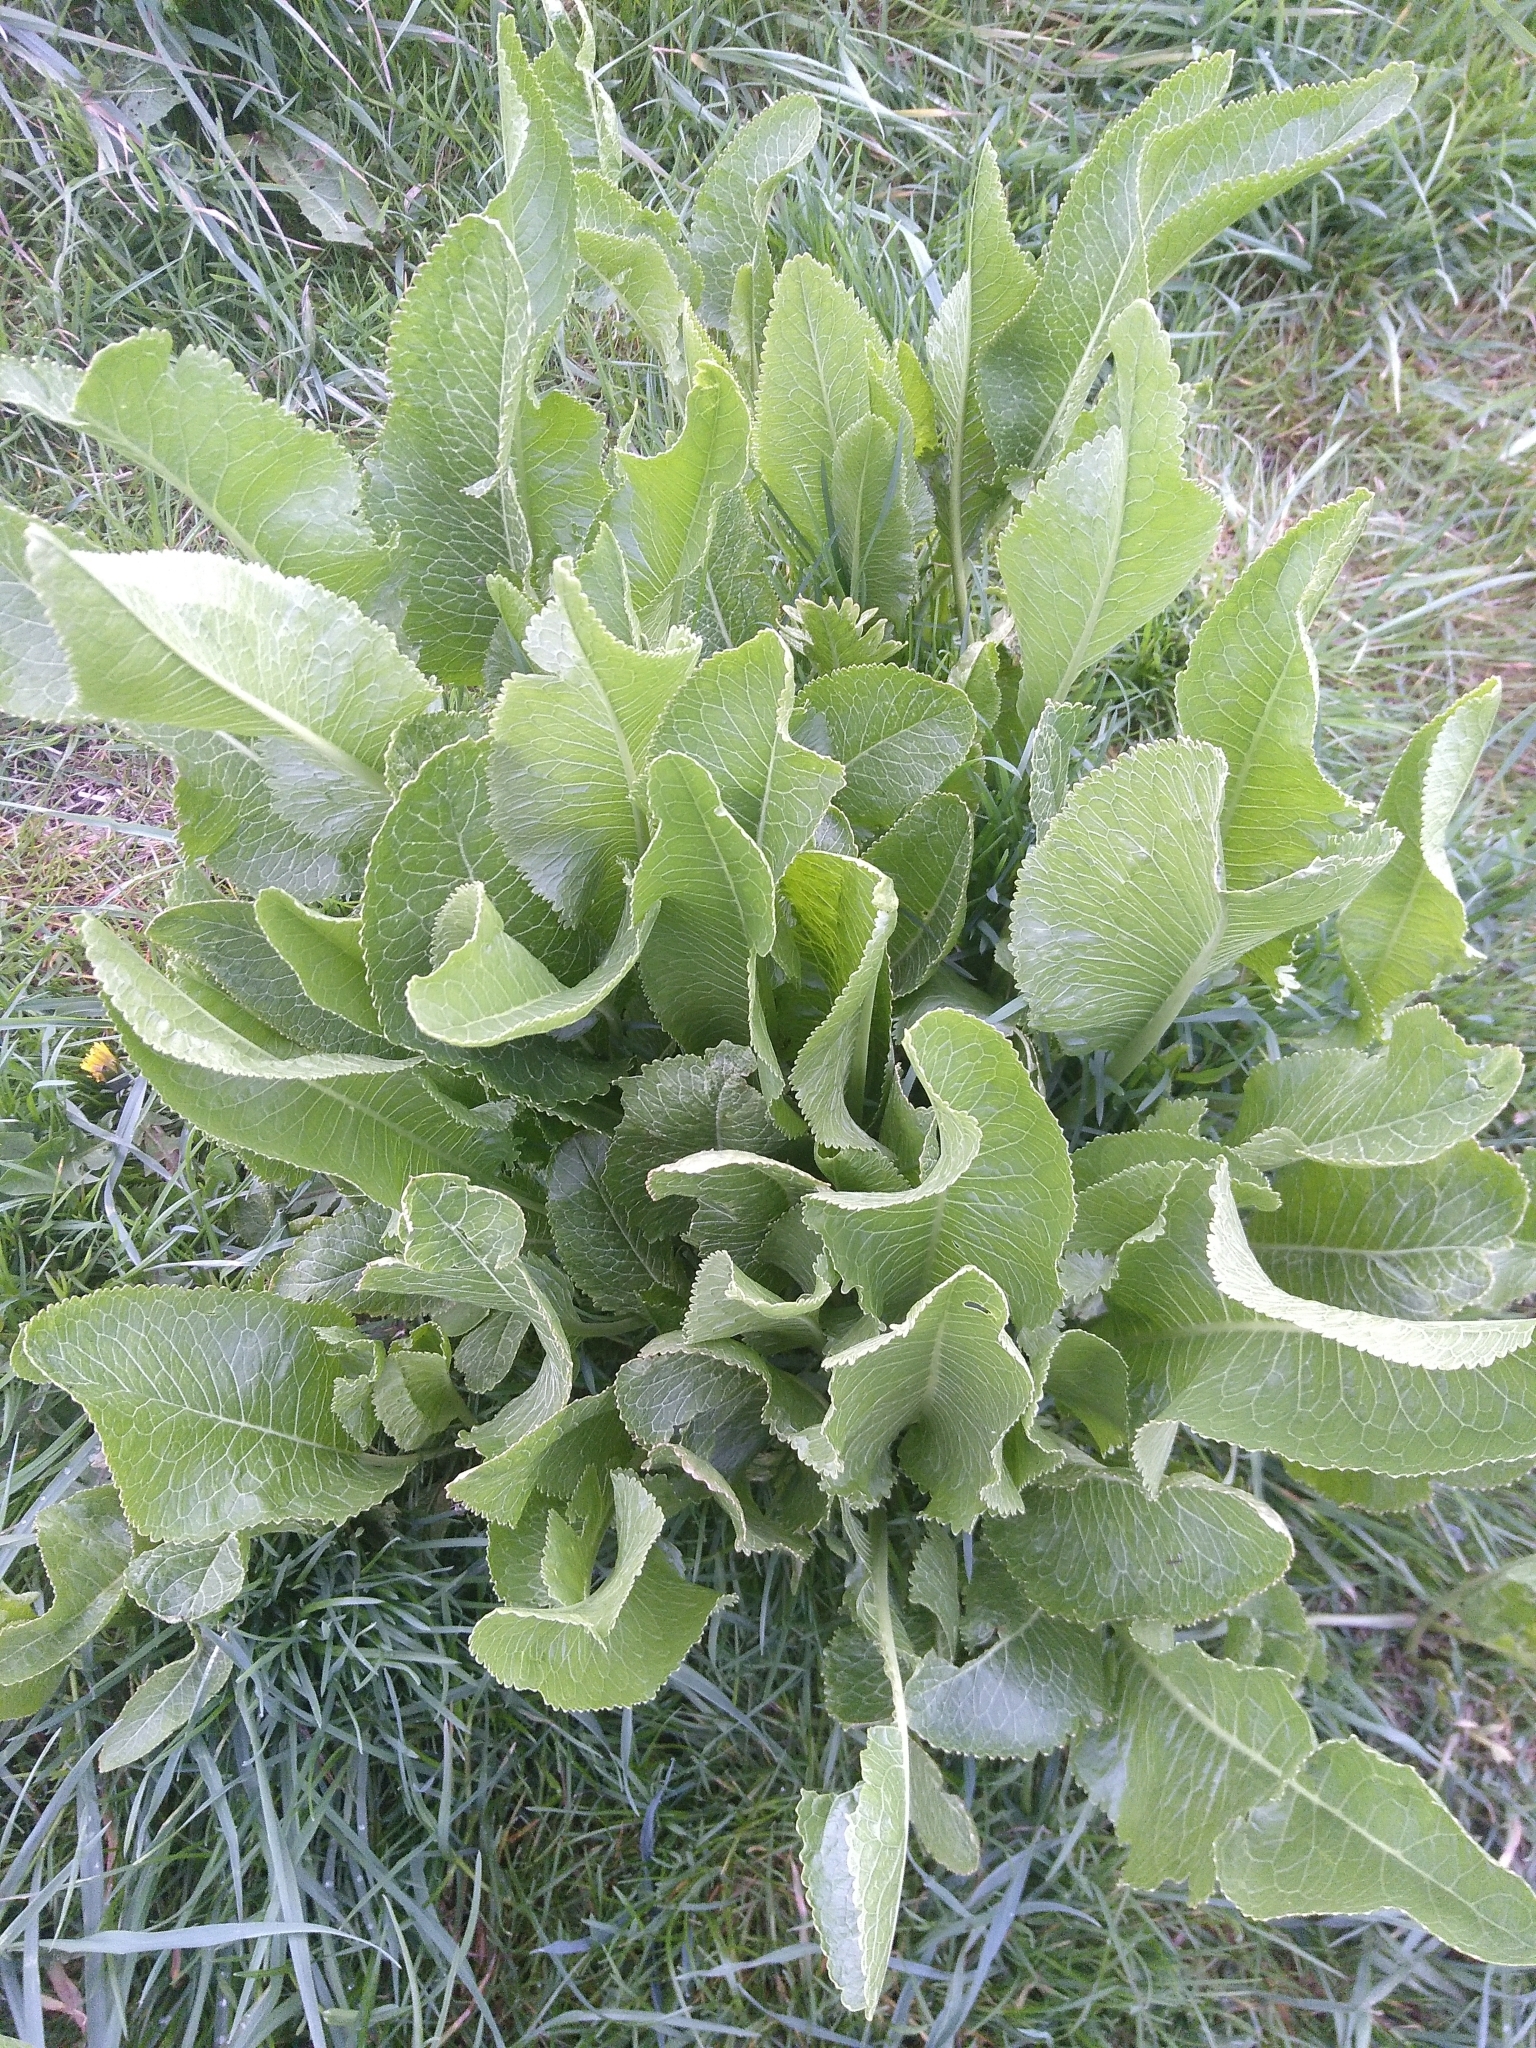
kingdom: Plantae
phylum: Tracheophyta
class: Magnoliopsida
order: Brassicales
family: Brassicaceae
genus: Armoracia
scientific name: Armoracia rusticana
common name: Horseradish
